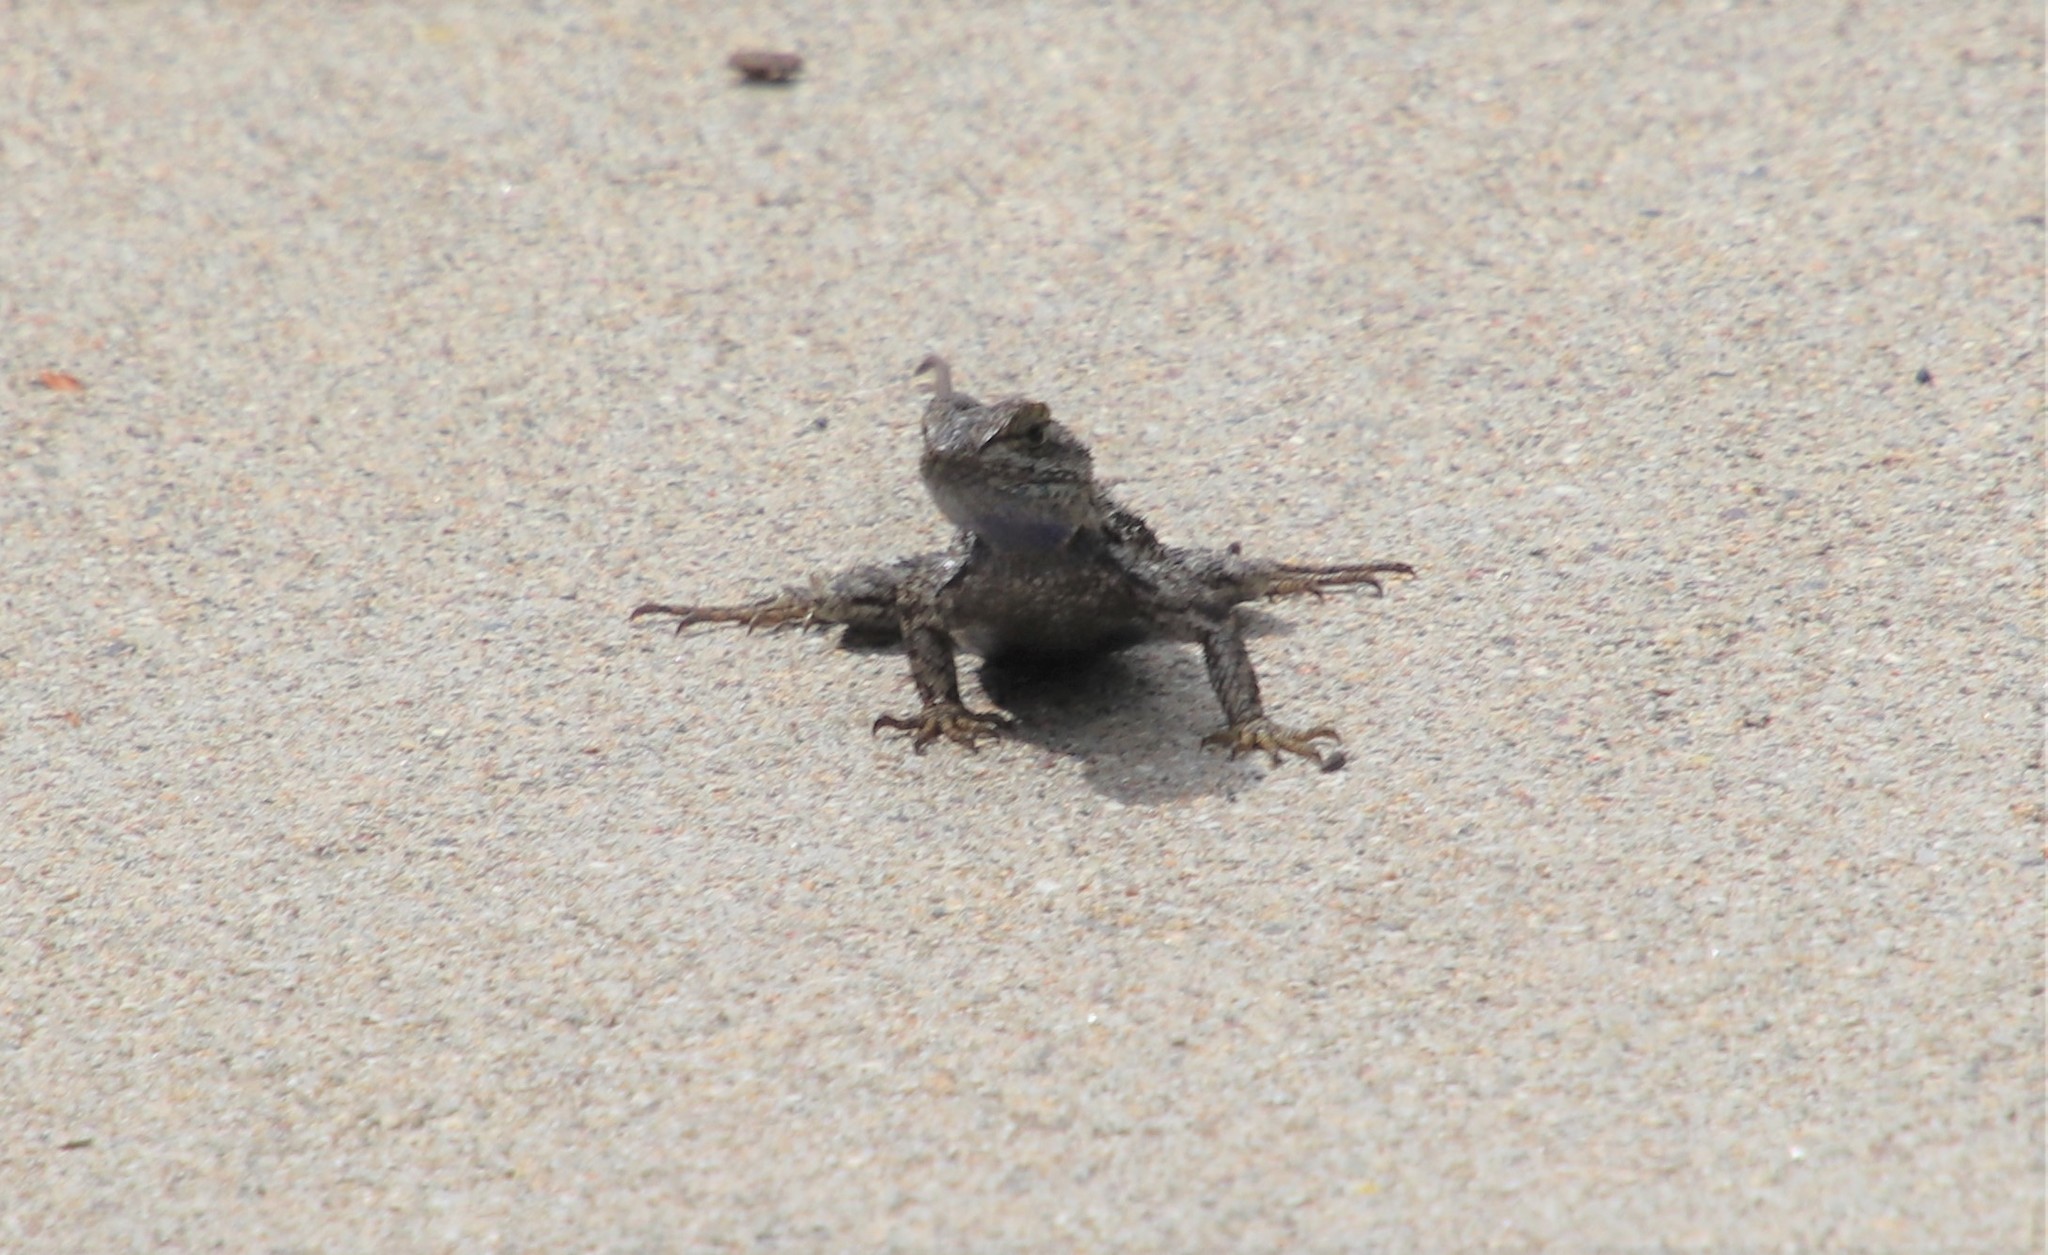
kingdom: Animalia
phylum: Chordata
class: Squamata
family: Phrynosomatidae
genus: Sceloporus
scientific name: Sceloporus occidentalis
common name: Western fence lizard
